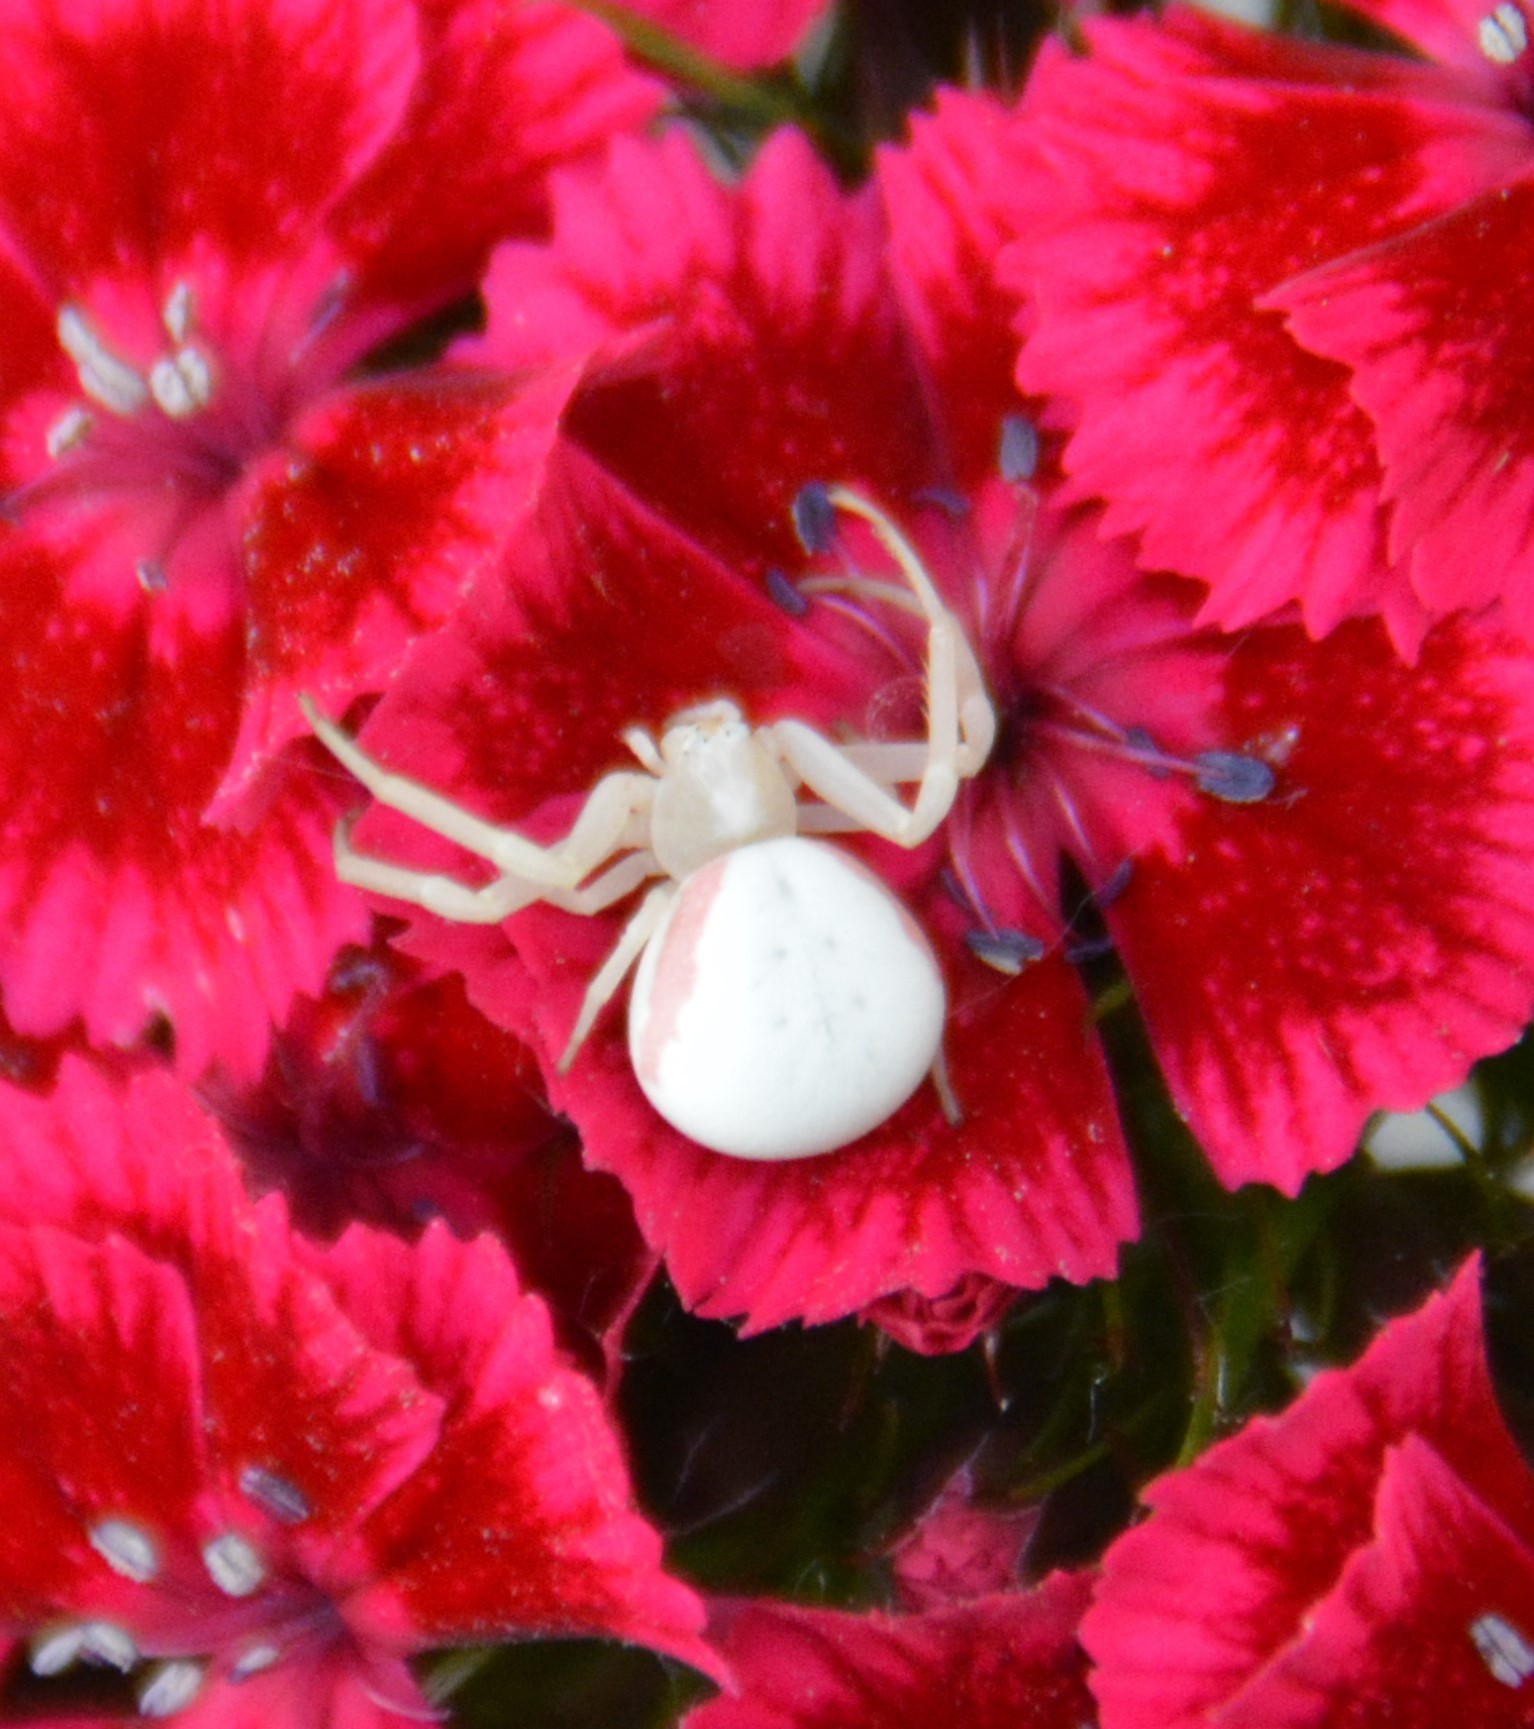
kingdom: Animalia
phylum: Arthropoda
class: Arachnida
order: Araneae
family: Thomisidae
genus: Misumena
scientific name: Misumena vatia
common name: Goldenrod crab spider
